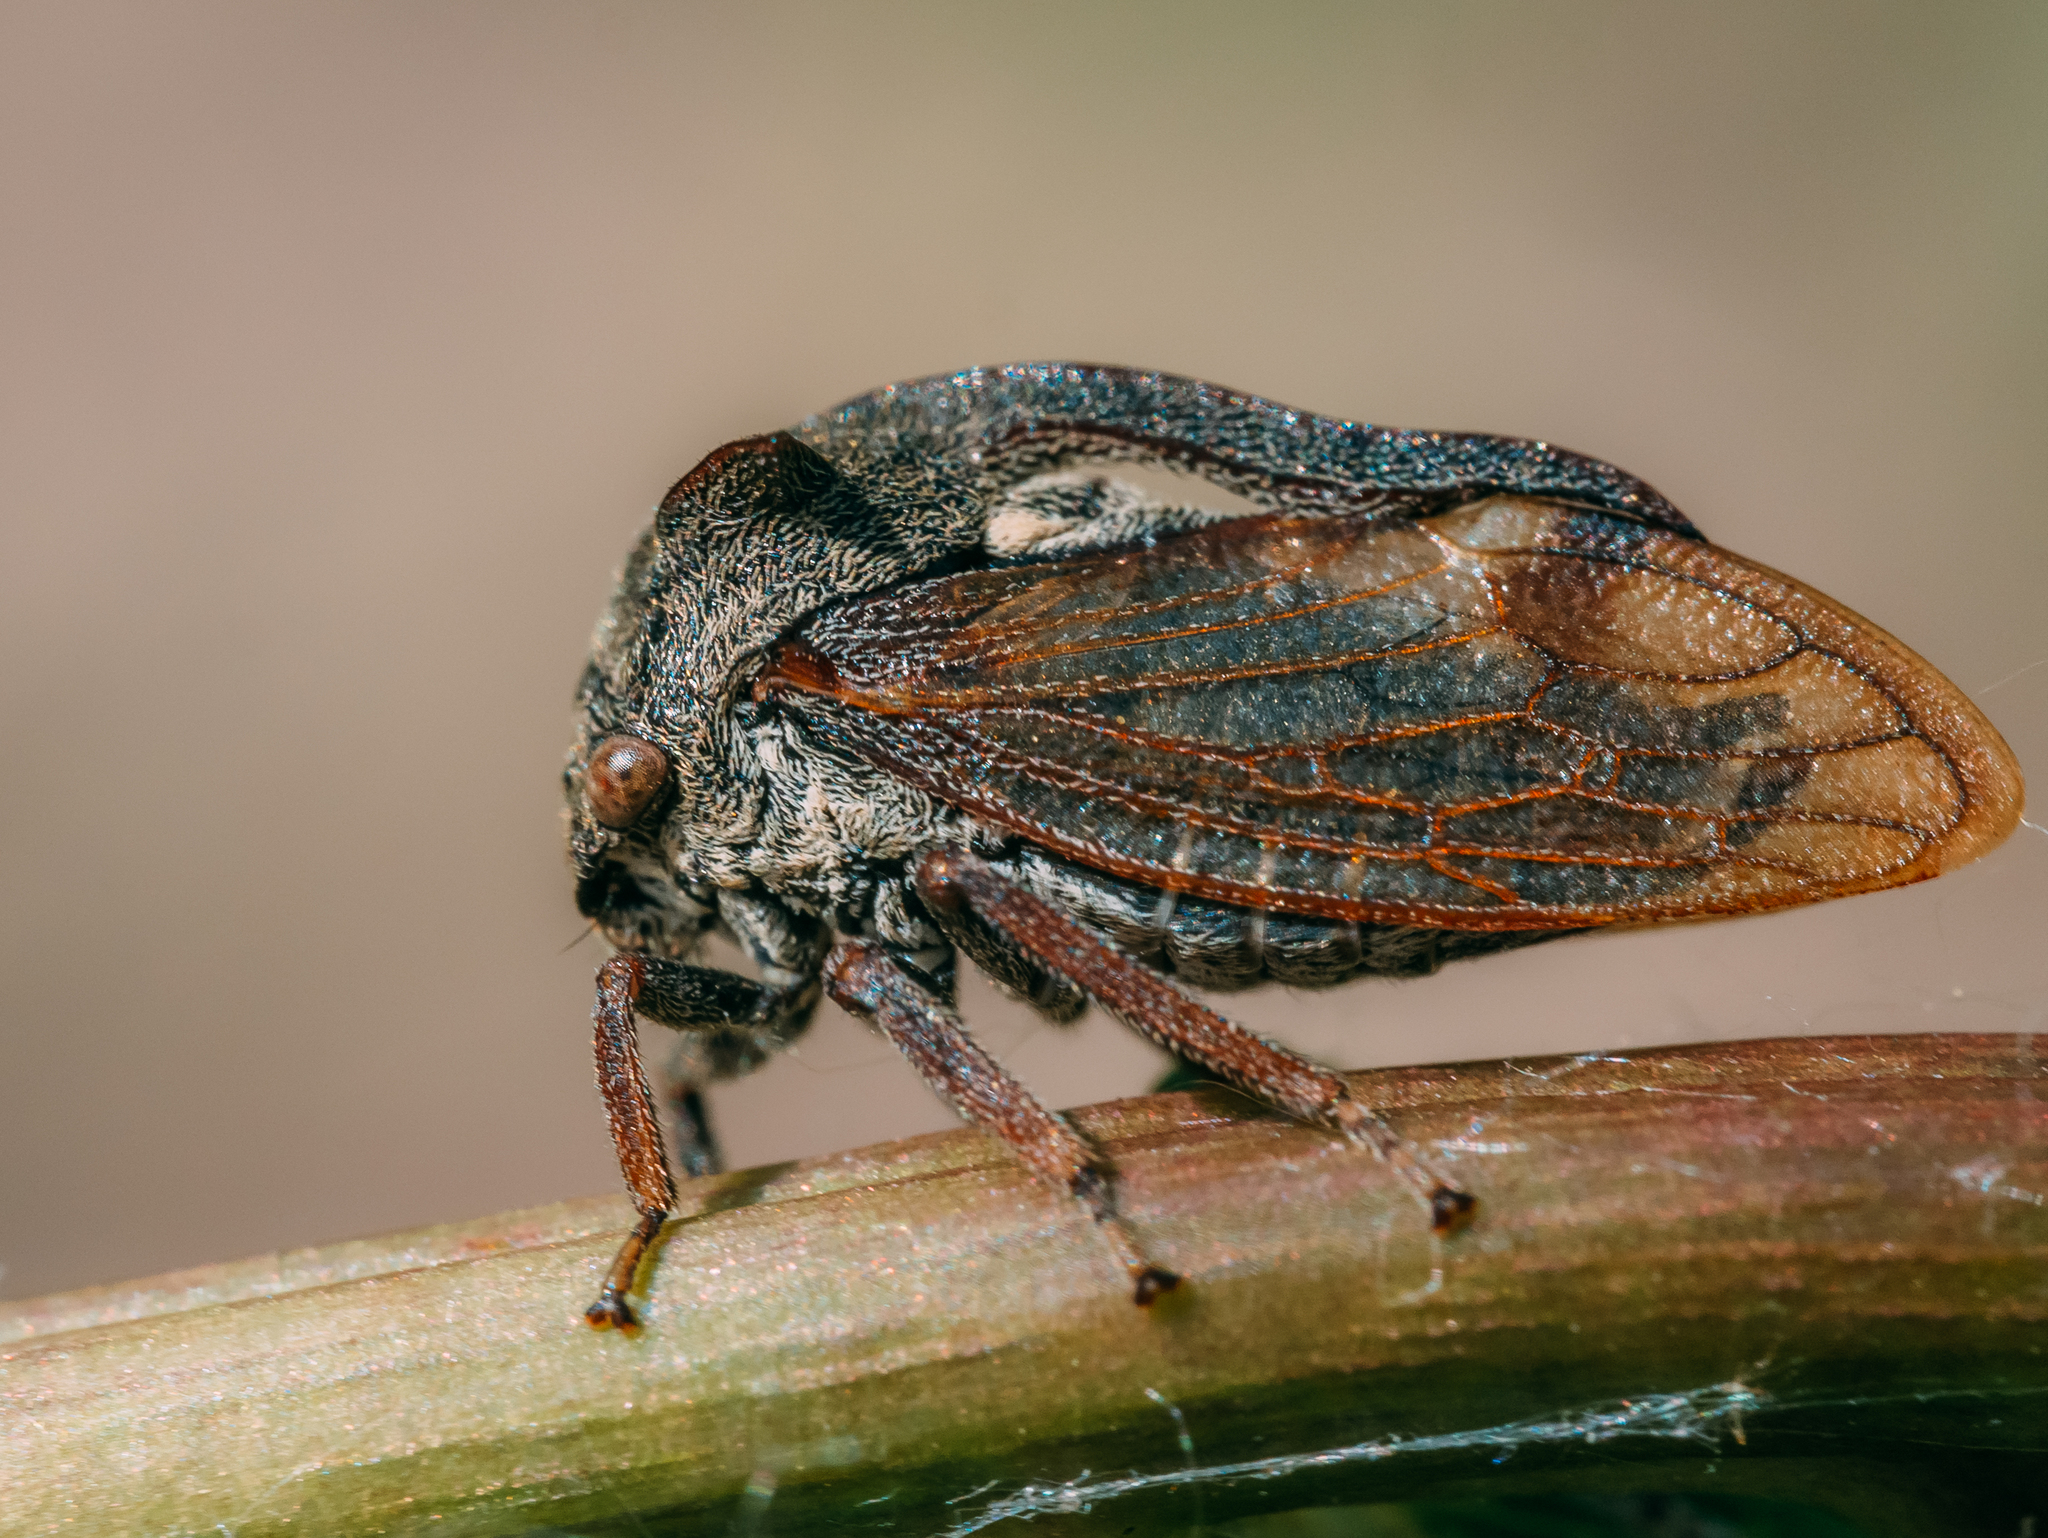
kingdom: Animalia
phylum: Arthropoda
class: Insecta
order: Hemiptera
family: Membracidae
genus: Centrotus
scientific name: Centrotus cornuta
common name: Treehopper
